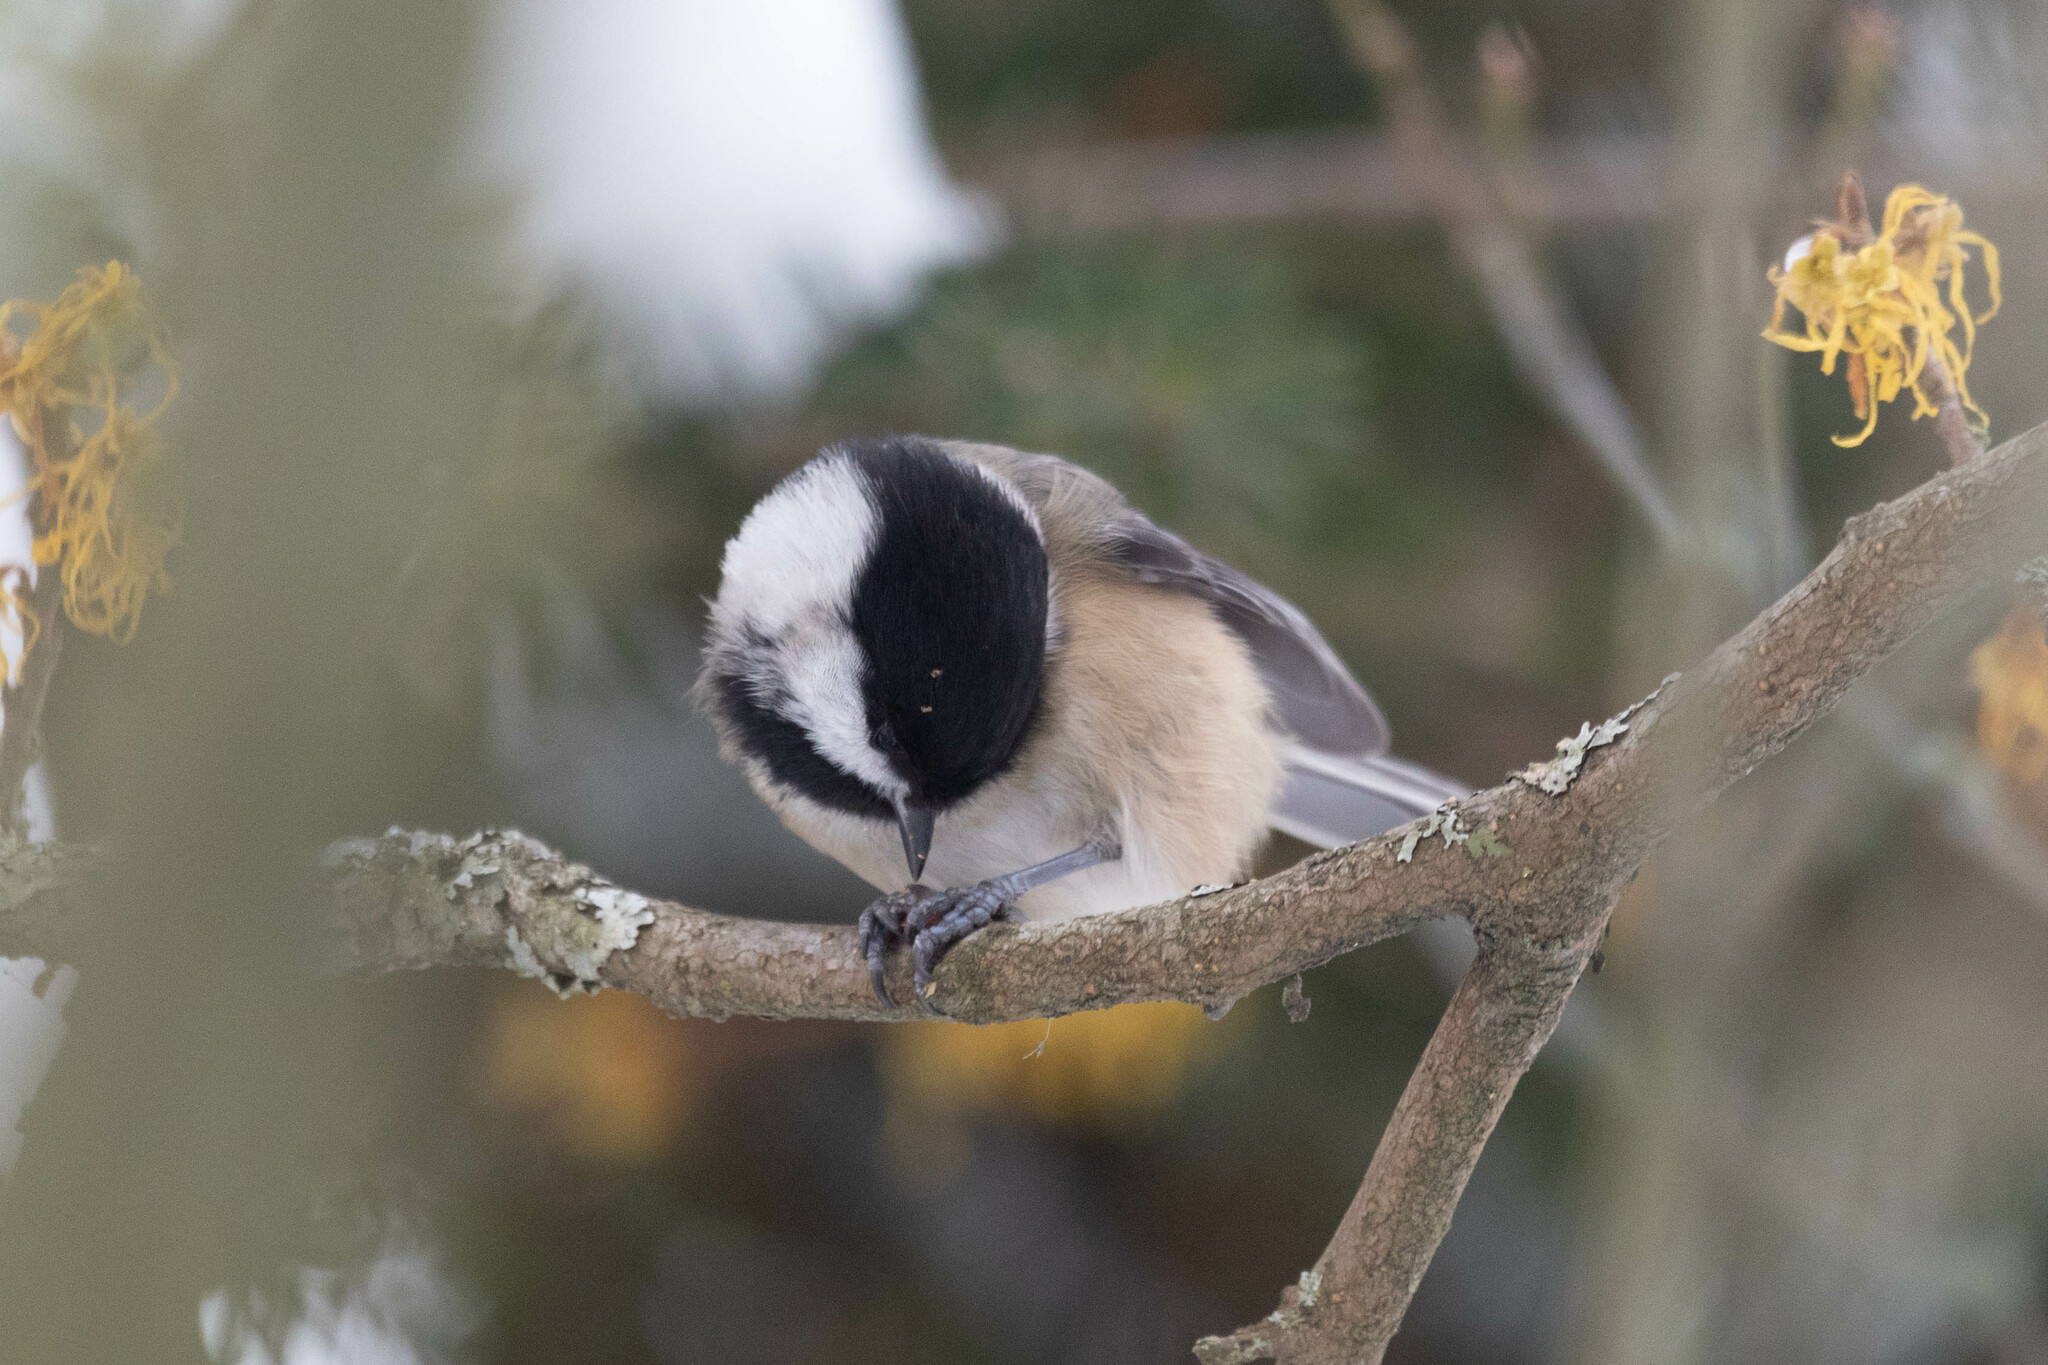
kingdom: Animalia
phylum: Chordata
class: Aves
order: Passeriformes
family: Paridae
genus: Poecile
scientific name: Poecile atricapillus
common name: Black-capped chickadee
